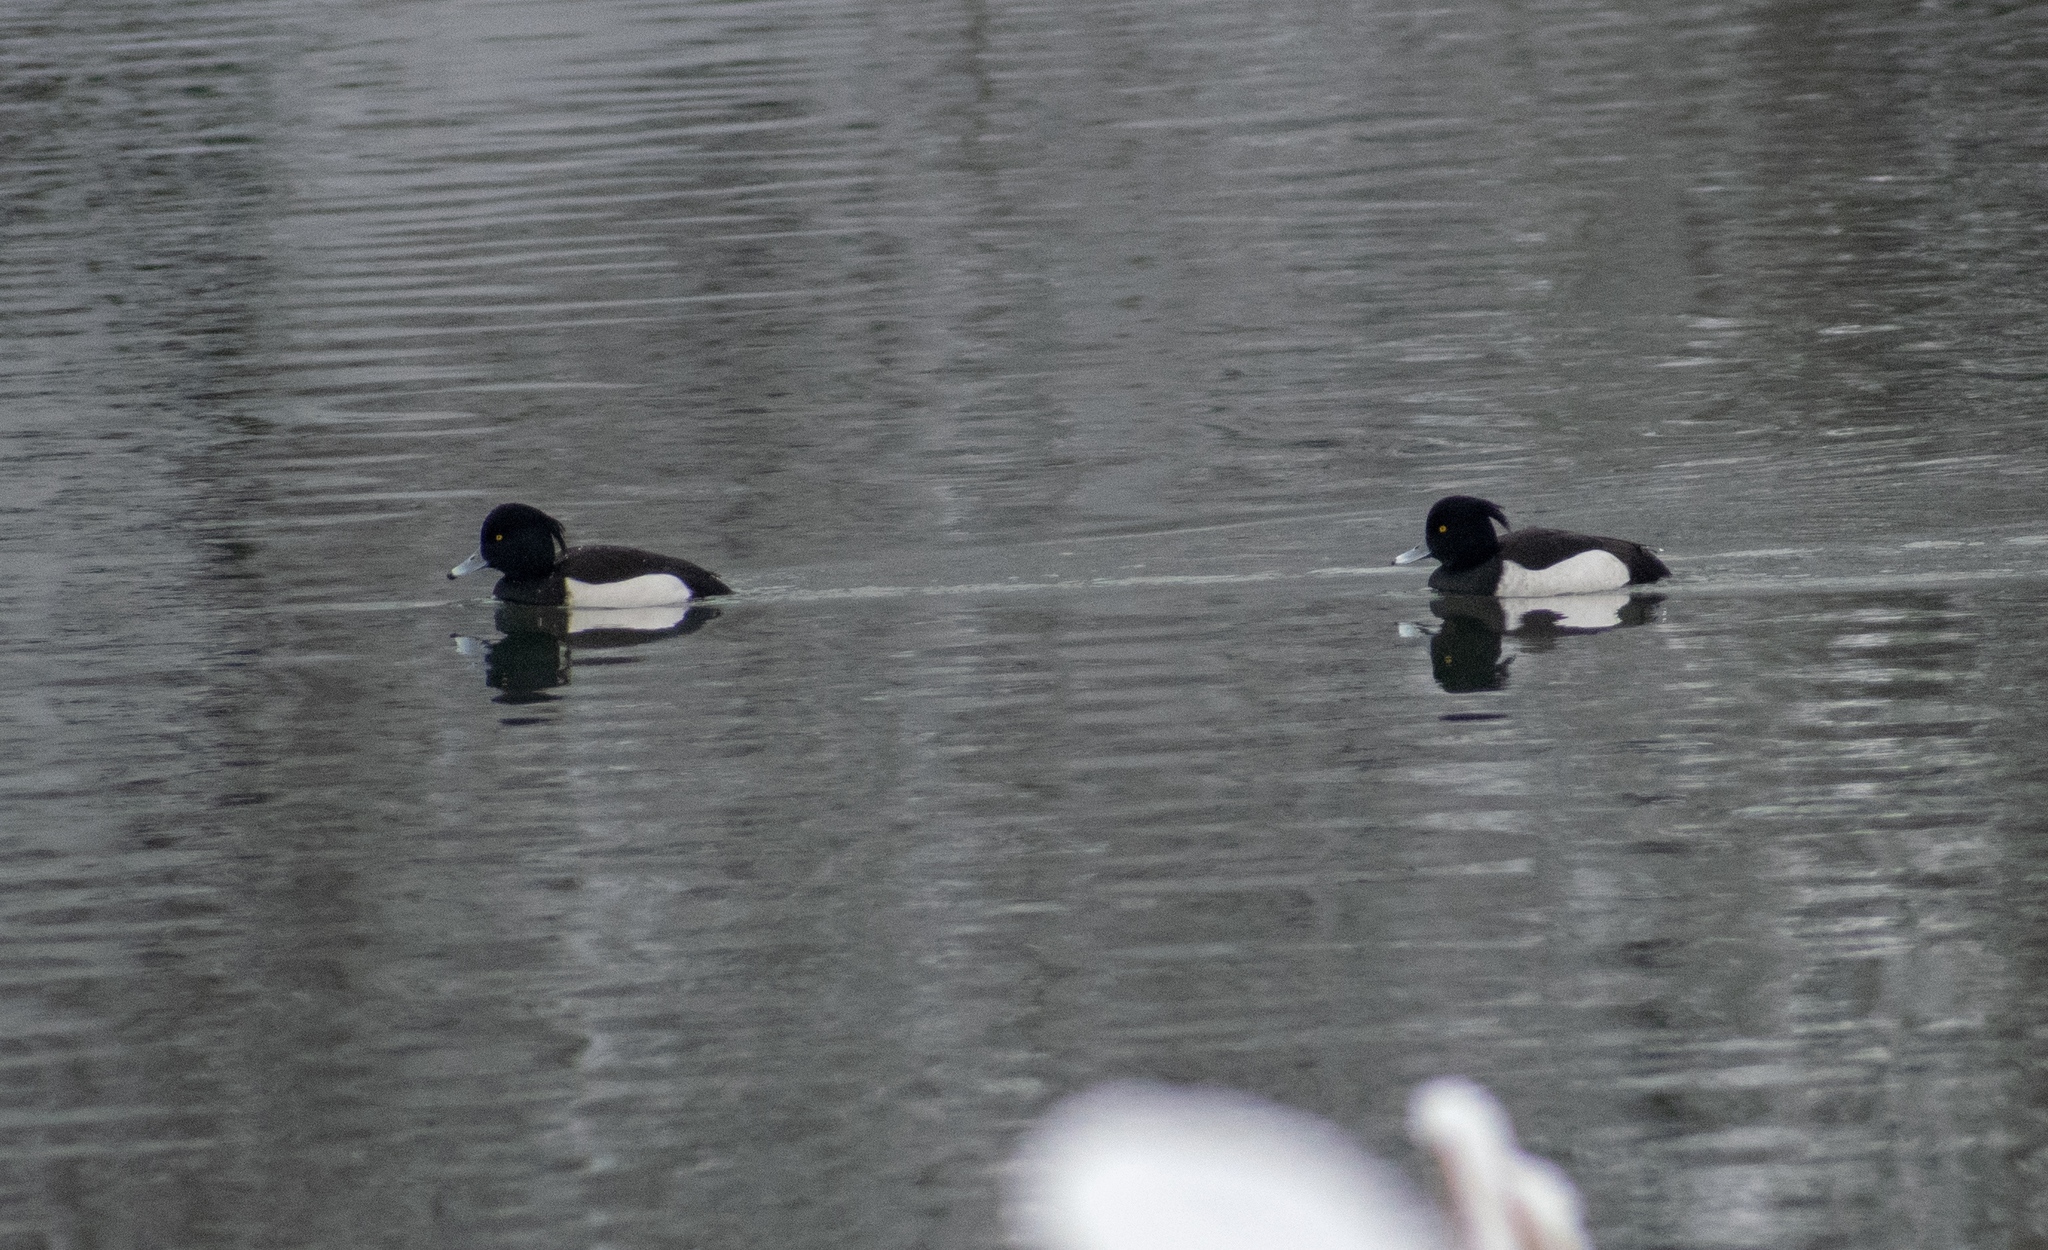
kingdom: Animalia
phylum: Chordata
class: Aves
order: Anseriformes
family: Anatidae
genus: Aythya
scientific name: Aythya fuligula
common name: Tufted duck
